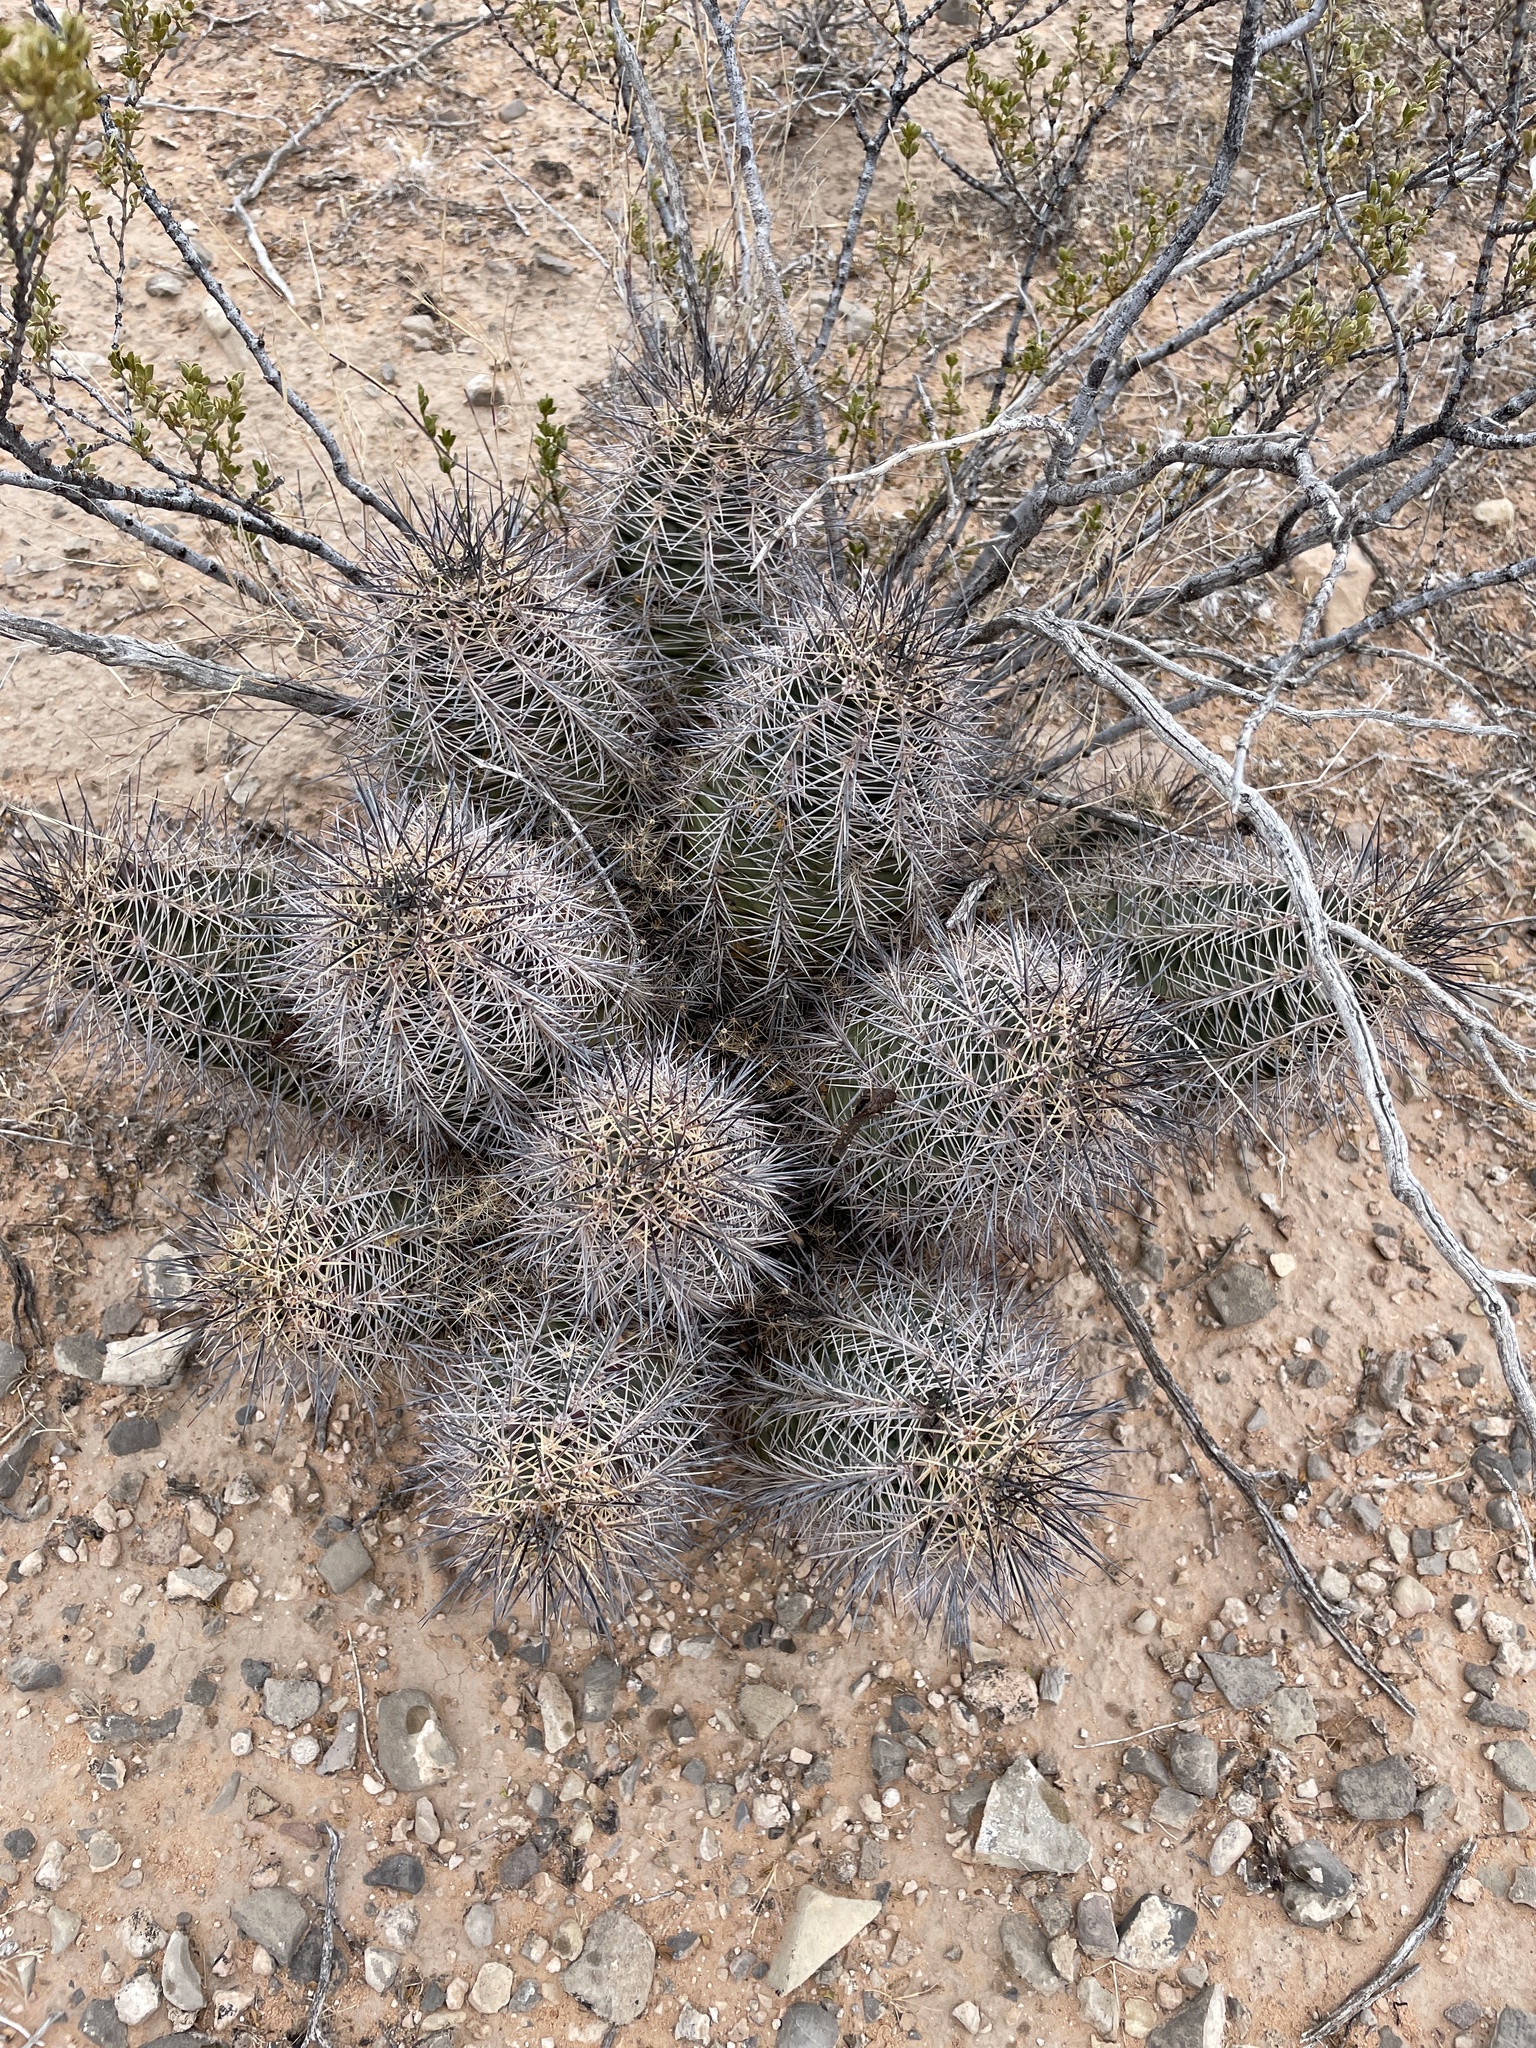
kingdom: Plantae
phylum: Tracheophyta
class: Magnoliopsida
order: Caryophyllales
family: Cactaceae
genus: Echinocereus
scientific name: Echinocereus coccineus
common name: Scarlet hedgehog cactus
